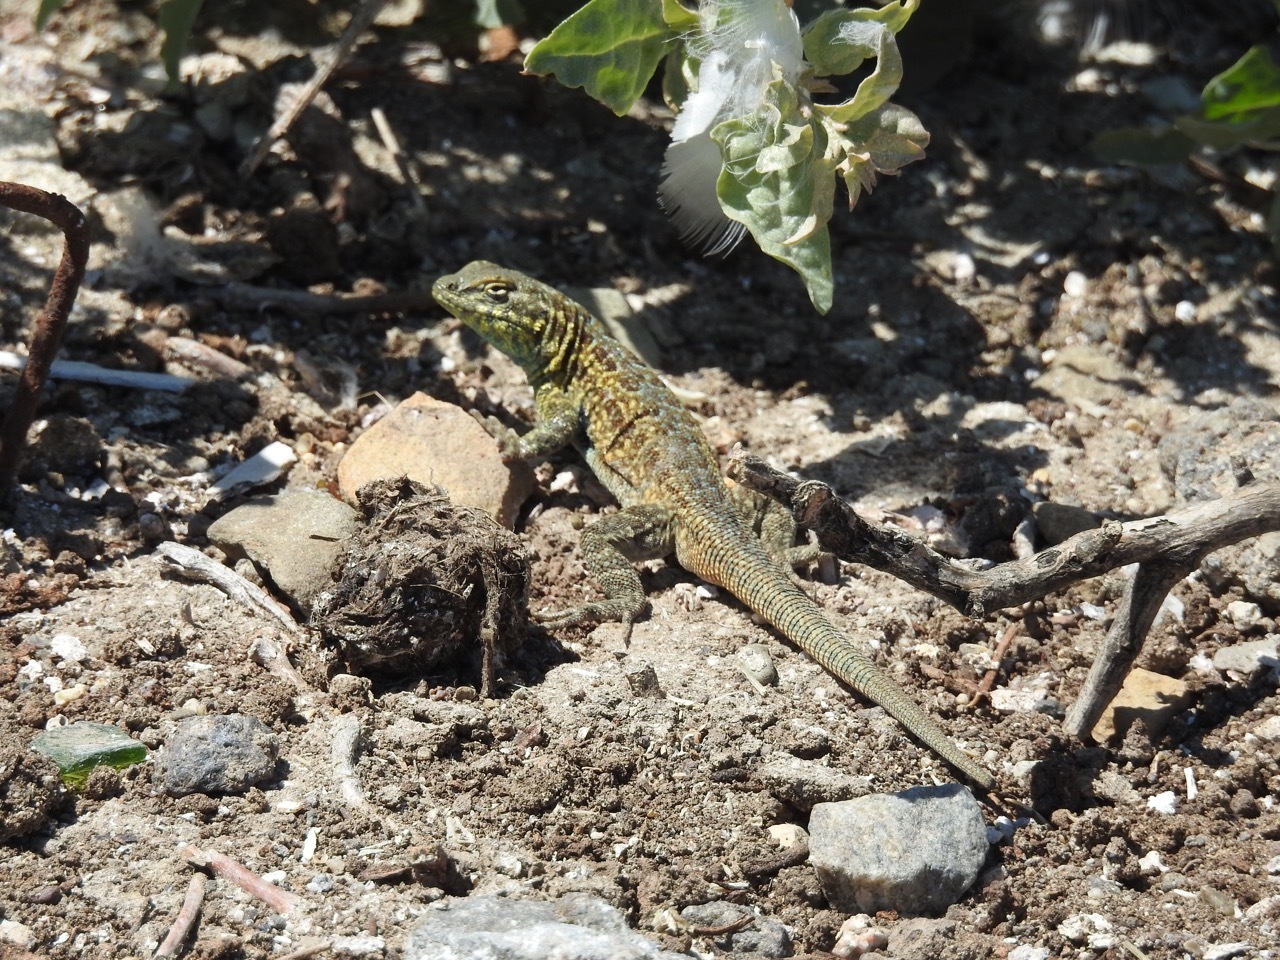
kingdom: Animalia
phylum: Chordata
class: Squamata
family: Phrynosomatidae
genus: Uta
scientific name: Uta stansburiana
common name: Side-blotched lizard
